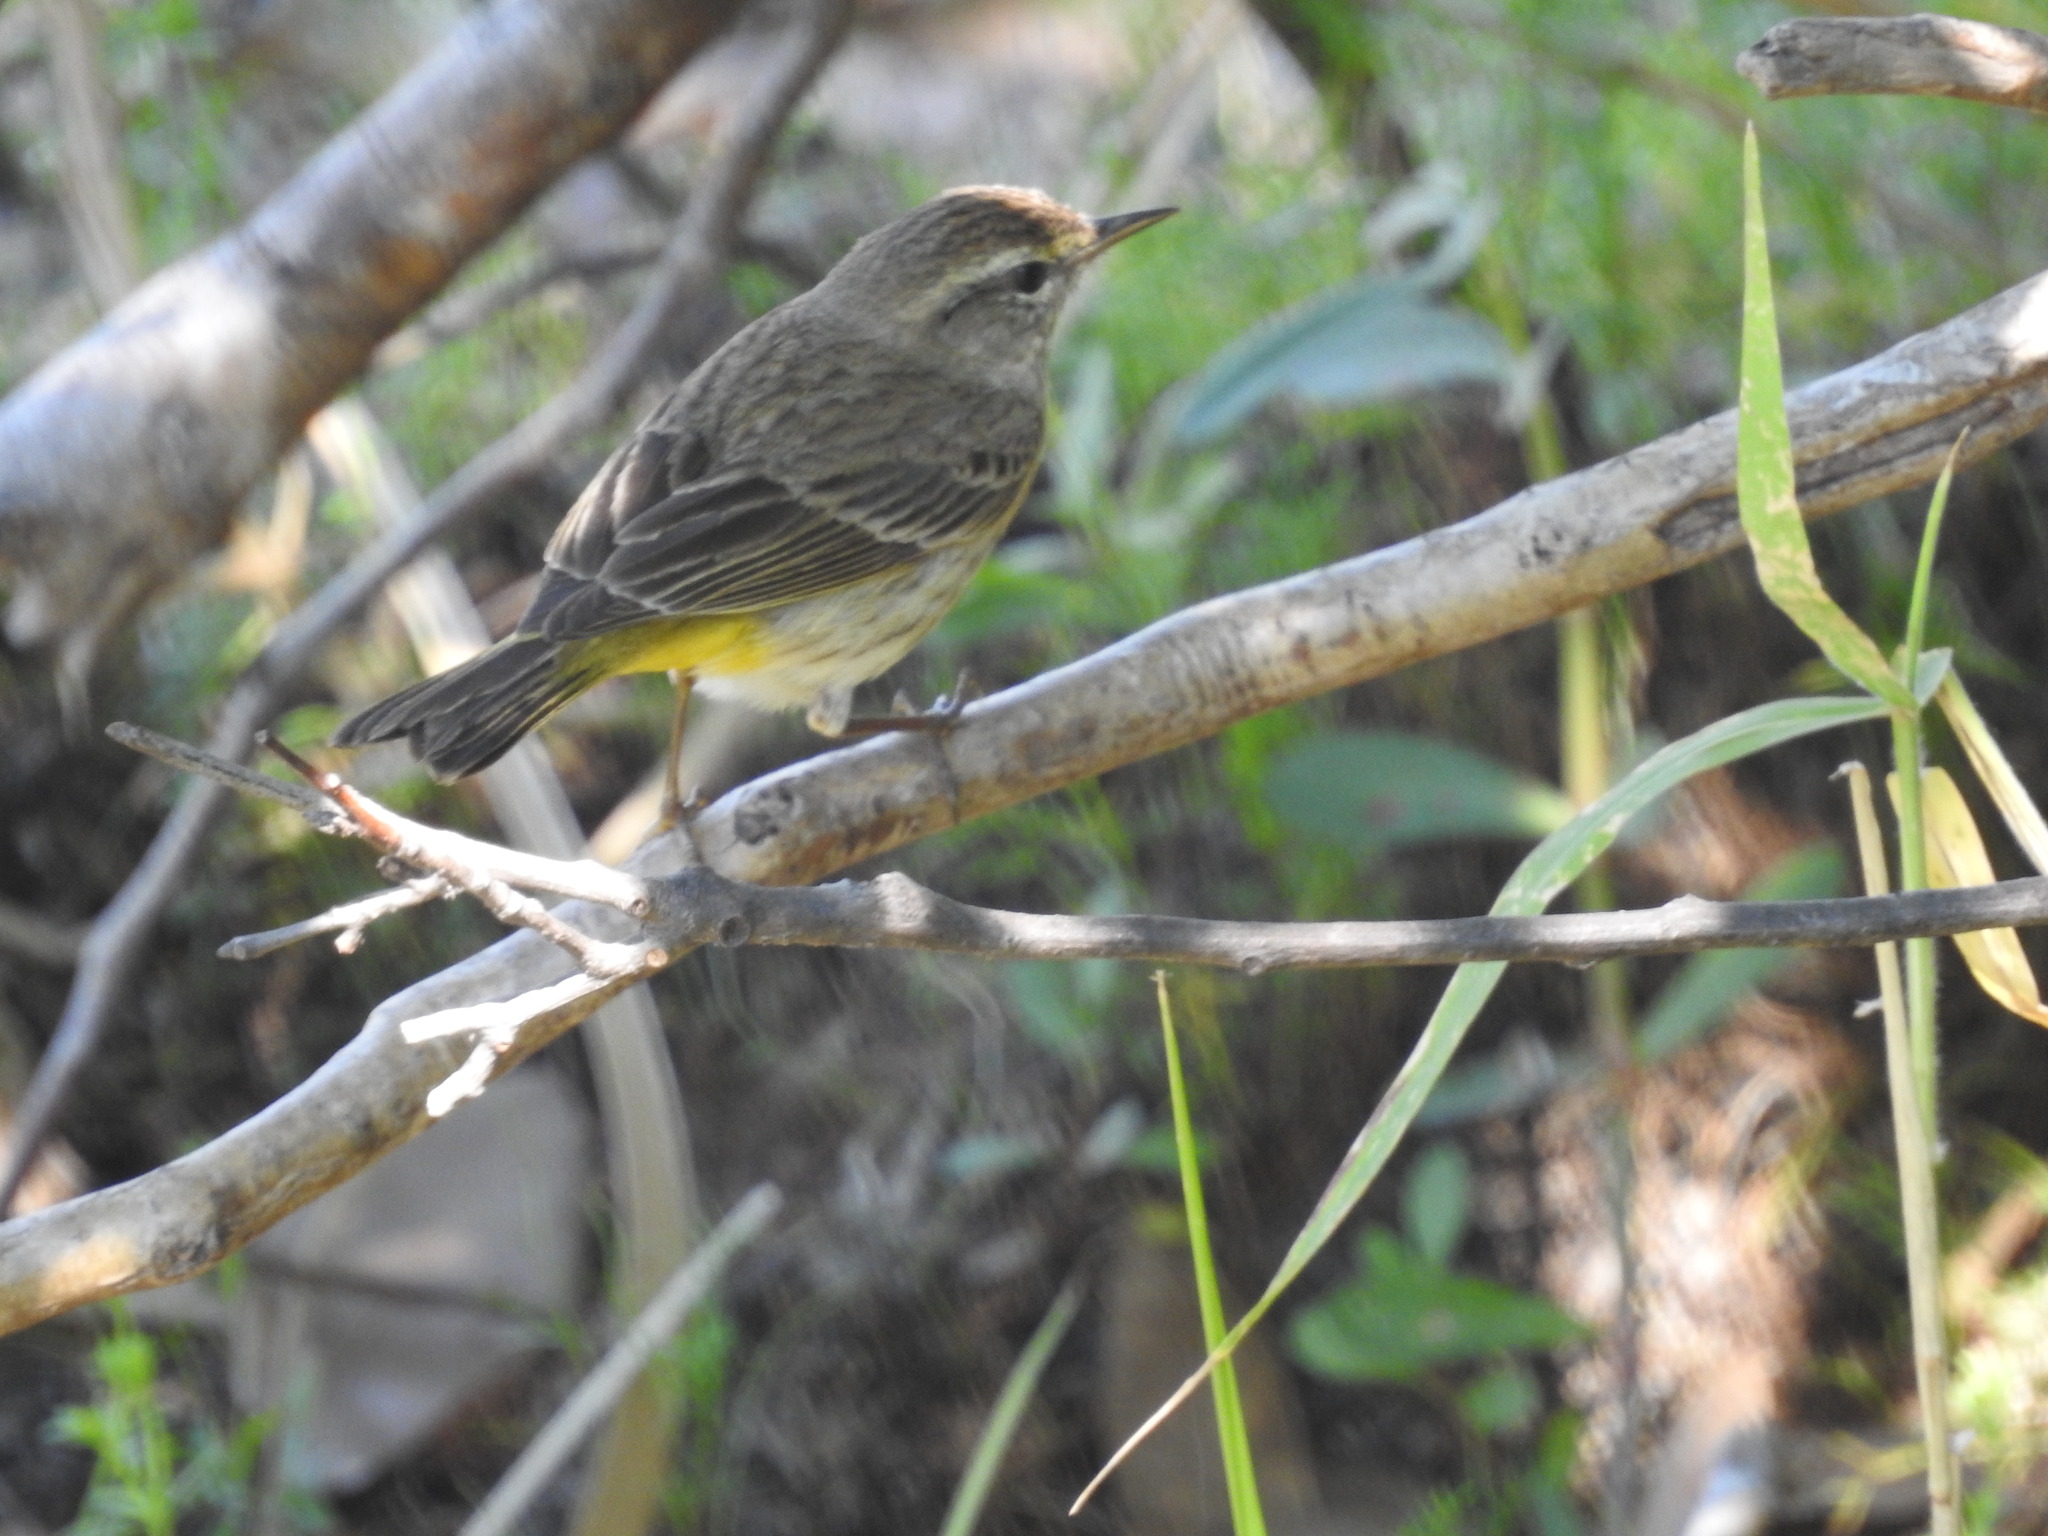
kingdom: Animalia
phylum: Chordata
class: Aves
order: Passeriformes
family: Parulidae
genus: Setophaga
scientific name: Setophaga palmarum
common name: Palm warbler
